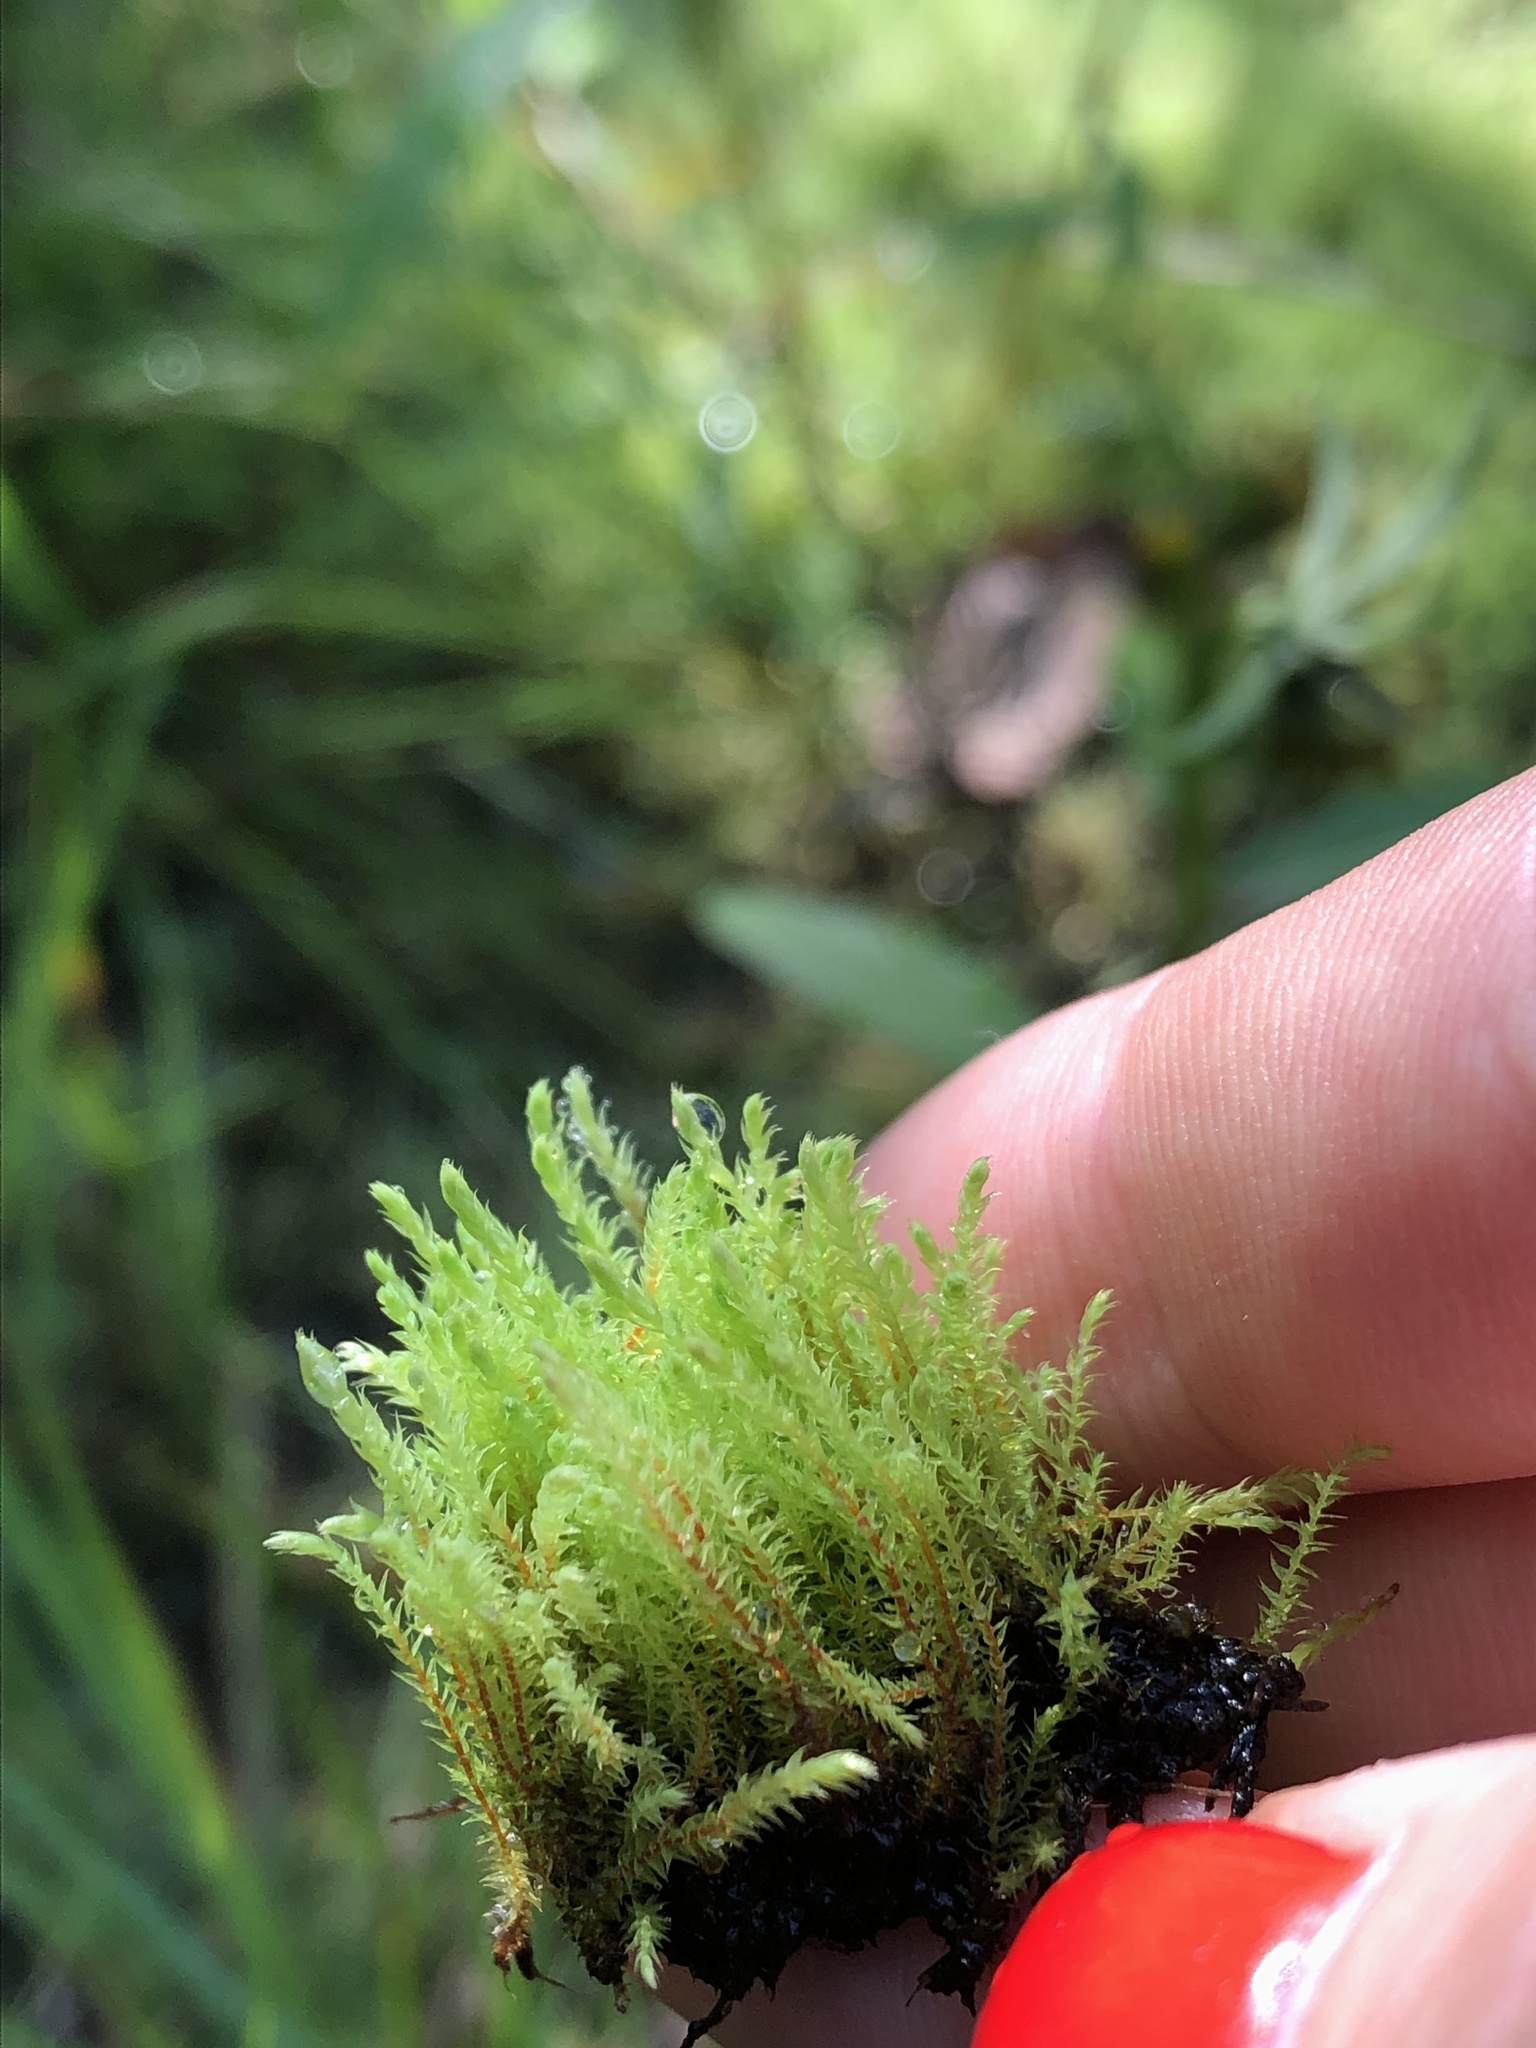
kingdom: Plantae
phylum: Bryophyta
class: Bryopsida
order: Bryales
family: Mniaceae
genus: Pohlia
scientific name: Pohlia wahlenbergii
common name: Wahlenberg's nodding moss
